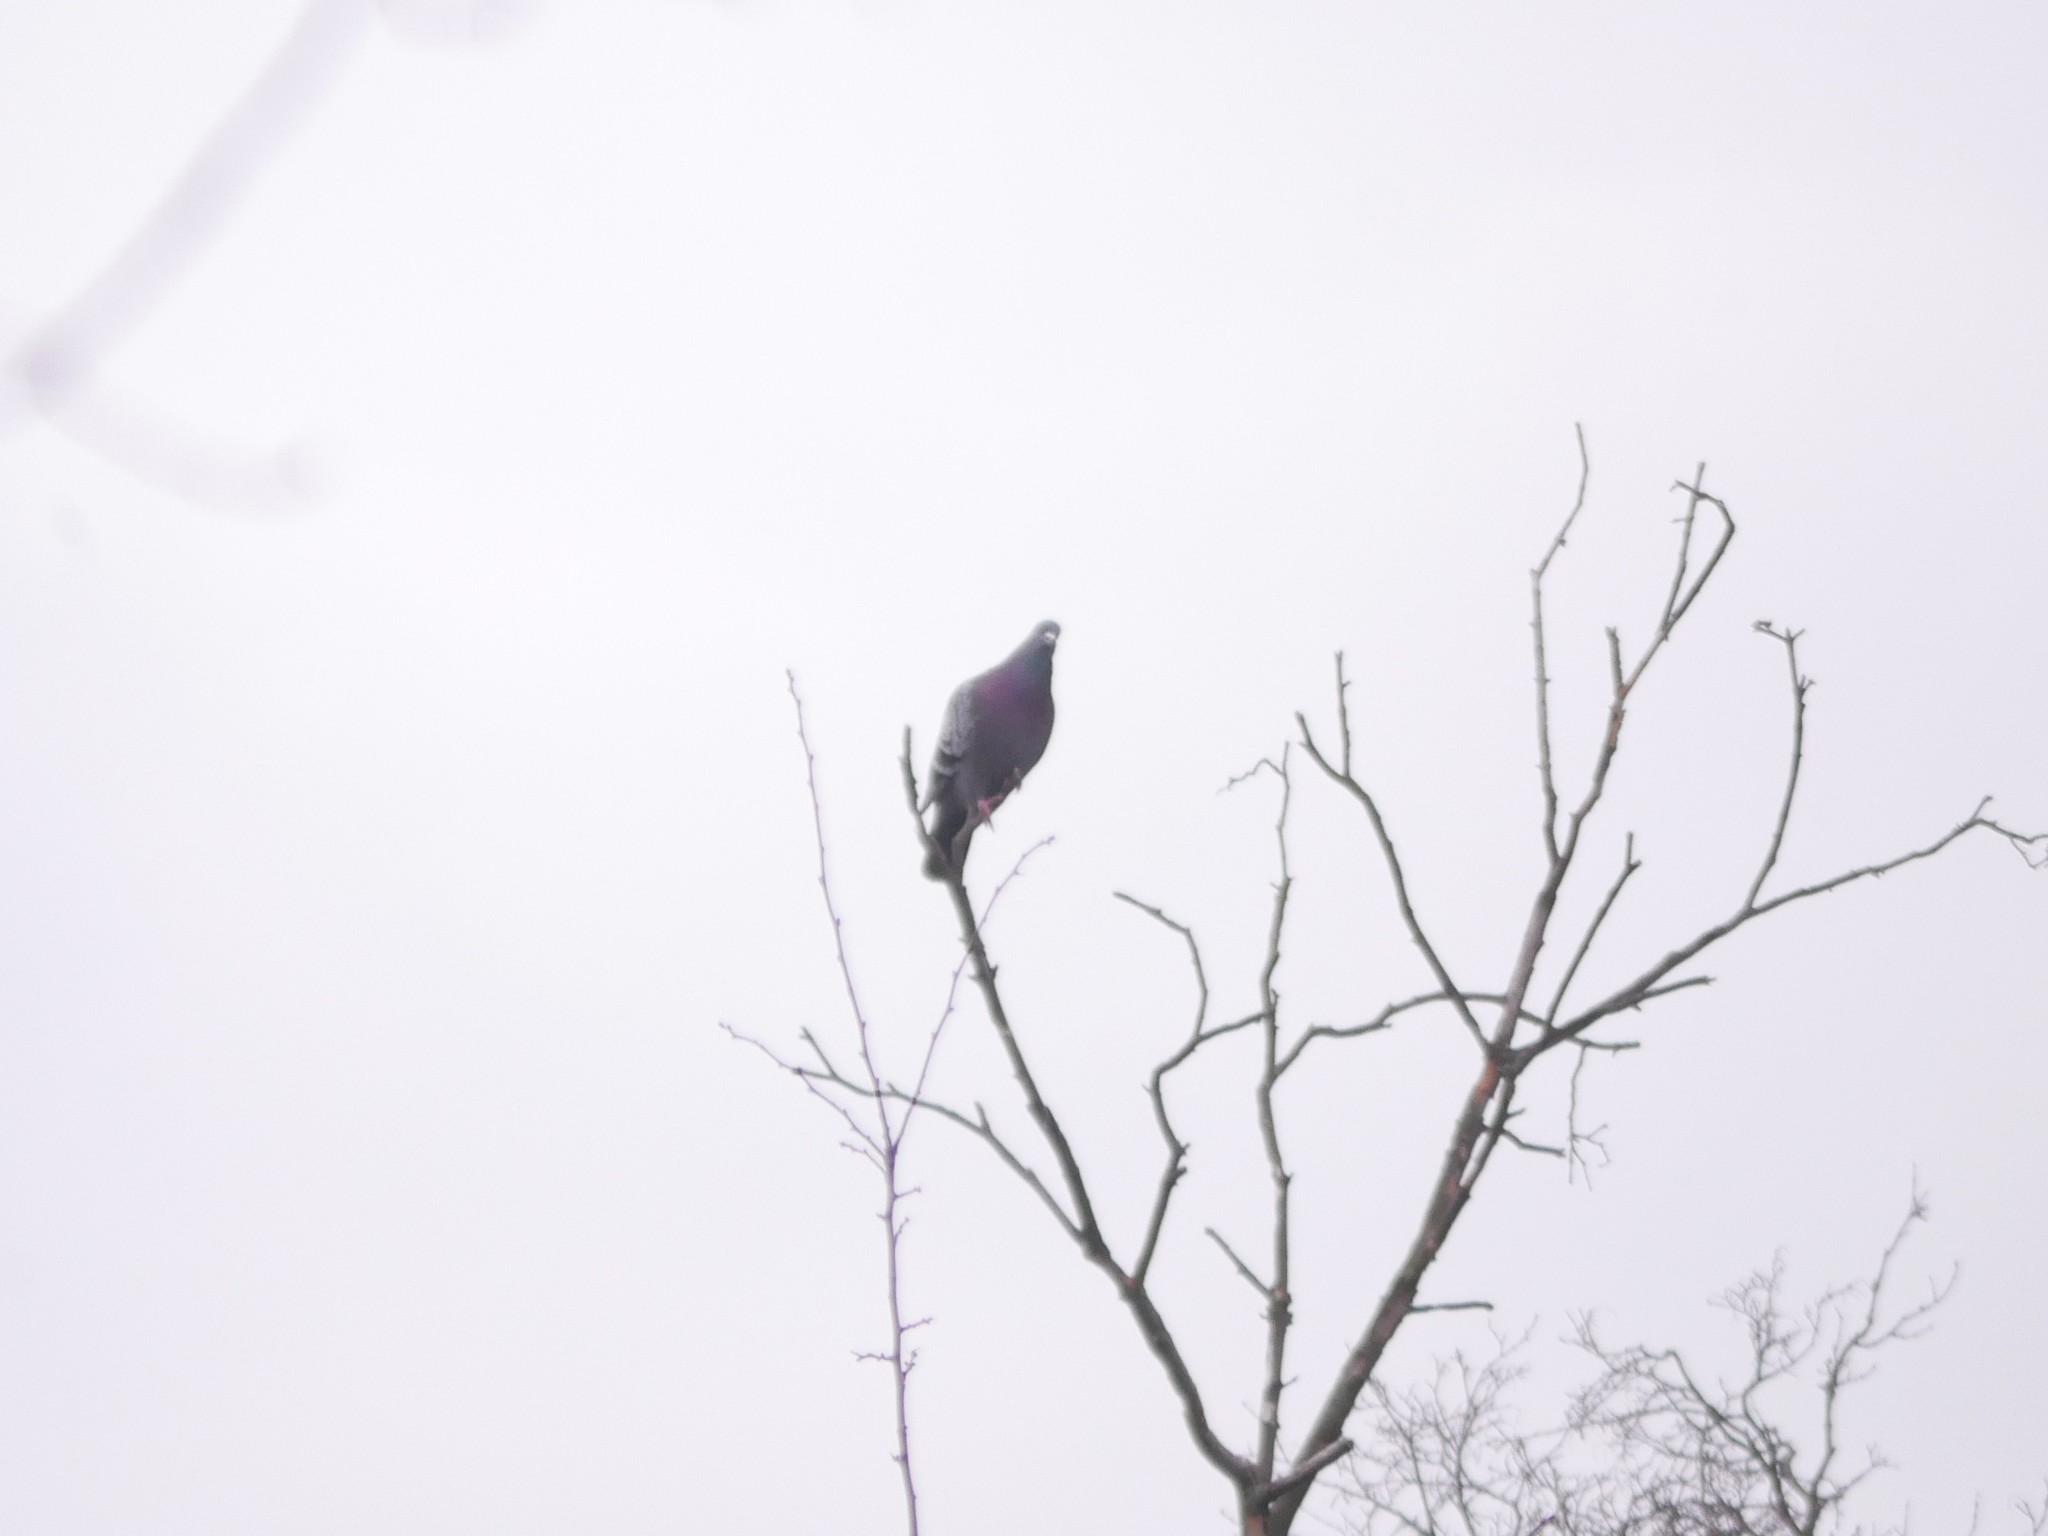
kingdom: Animalia
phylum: Chordata
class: Aves
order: Columbiformes
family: Columbidae
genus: Columba
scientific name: Columba livia
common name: Rock pigeon
